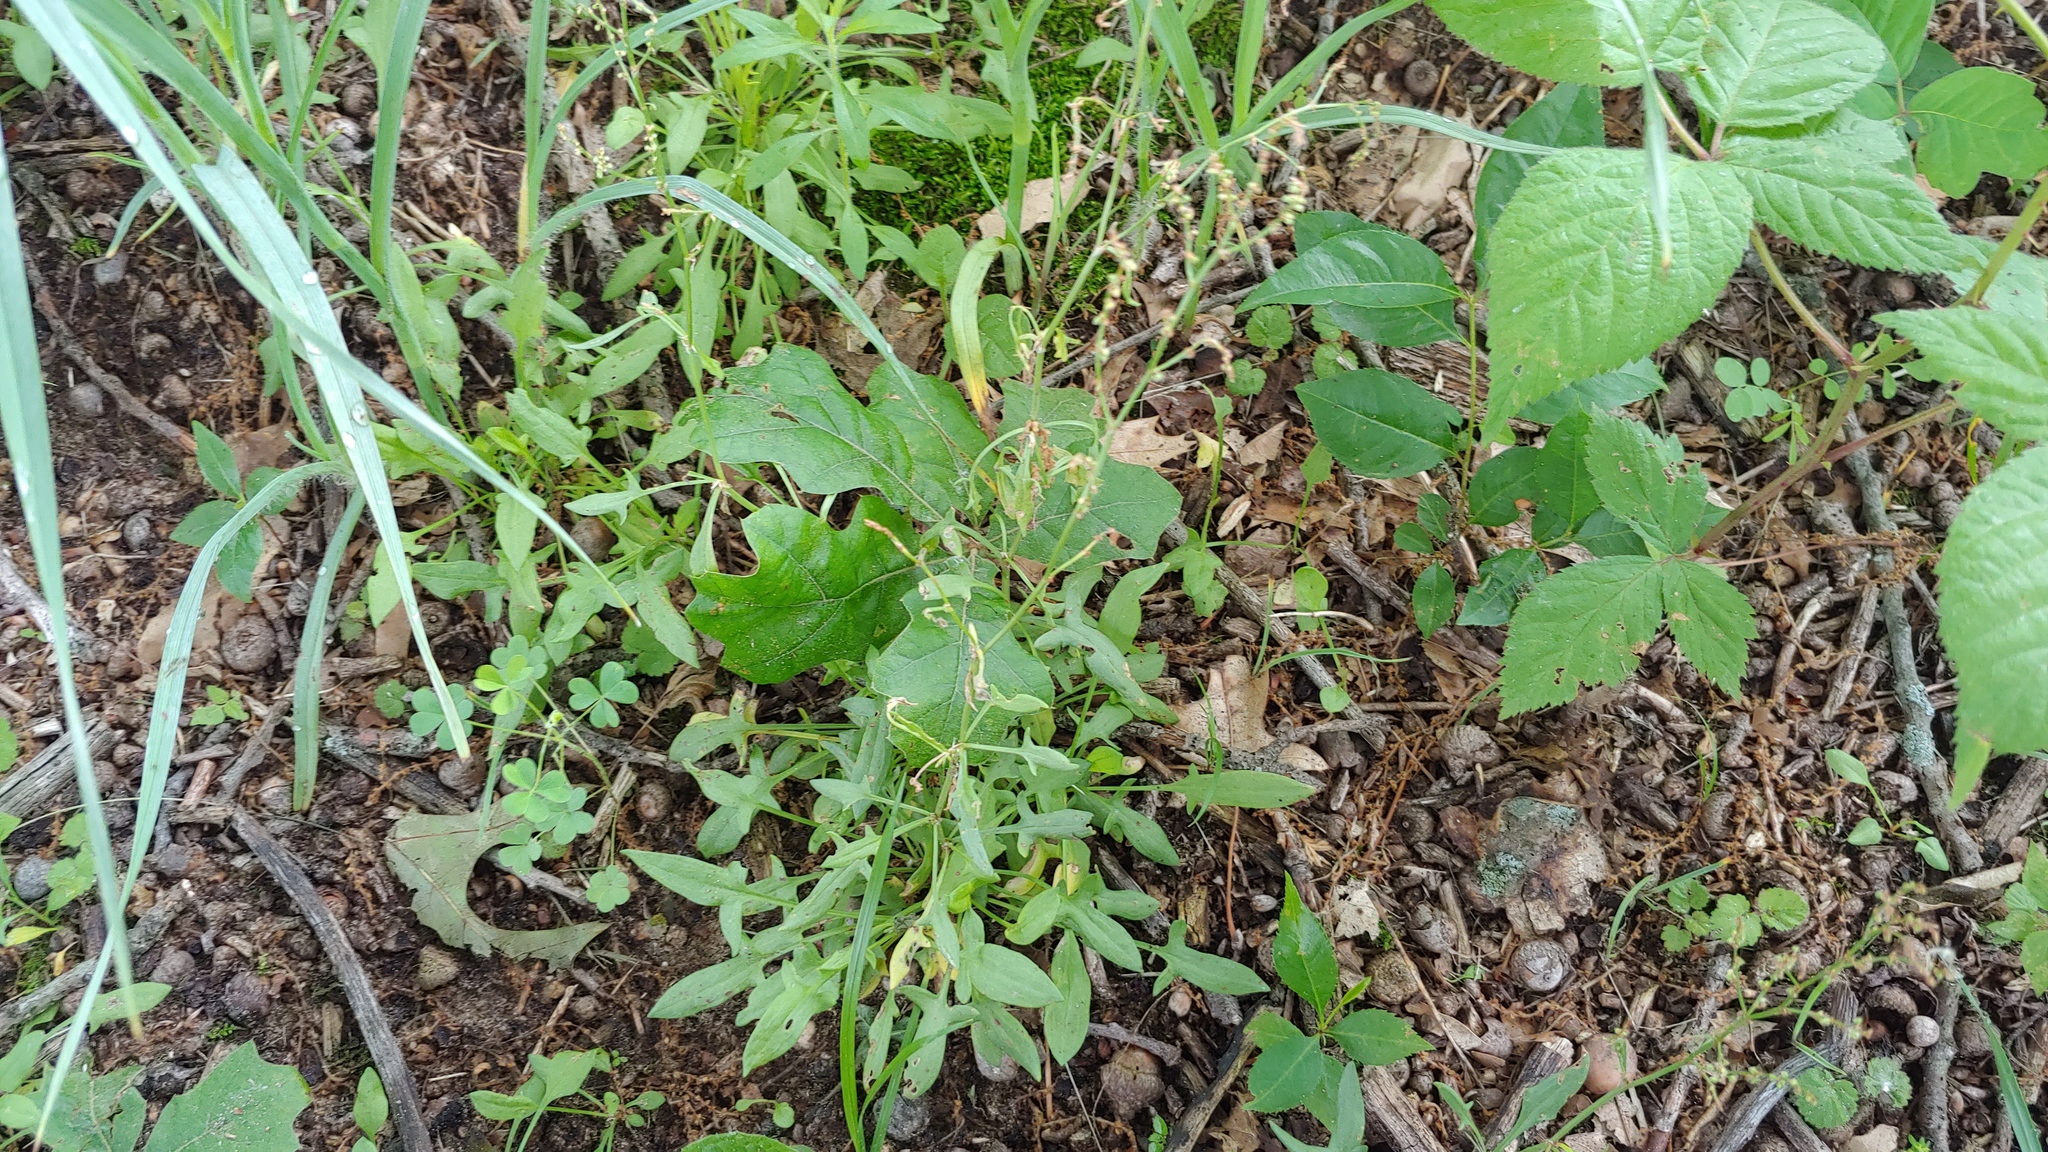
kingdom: Plantae
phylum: Tracheophyta
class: Magnoliopsida
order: Caryophyllales
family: Polygonaceae
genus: Rumex
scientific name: Rumex acetosella
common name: Common sheep sorrel
